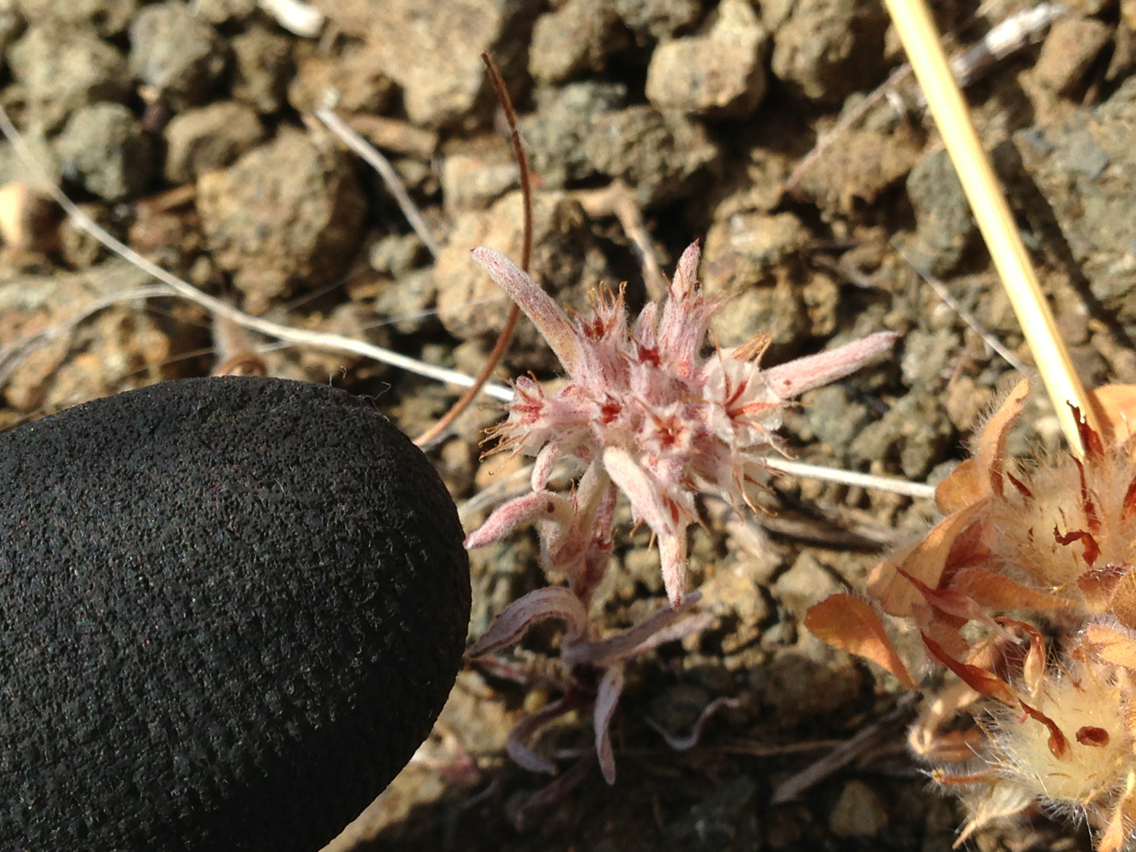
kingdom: Plantae
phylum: Tracheophyta
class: Magnoliopsida
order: Caryophyllales
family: Polygonaceae
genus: Chorizanthe
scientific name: Chorizanthe membranacea
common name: Pink spineflower
